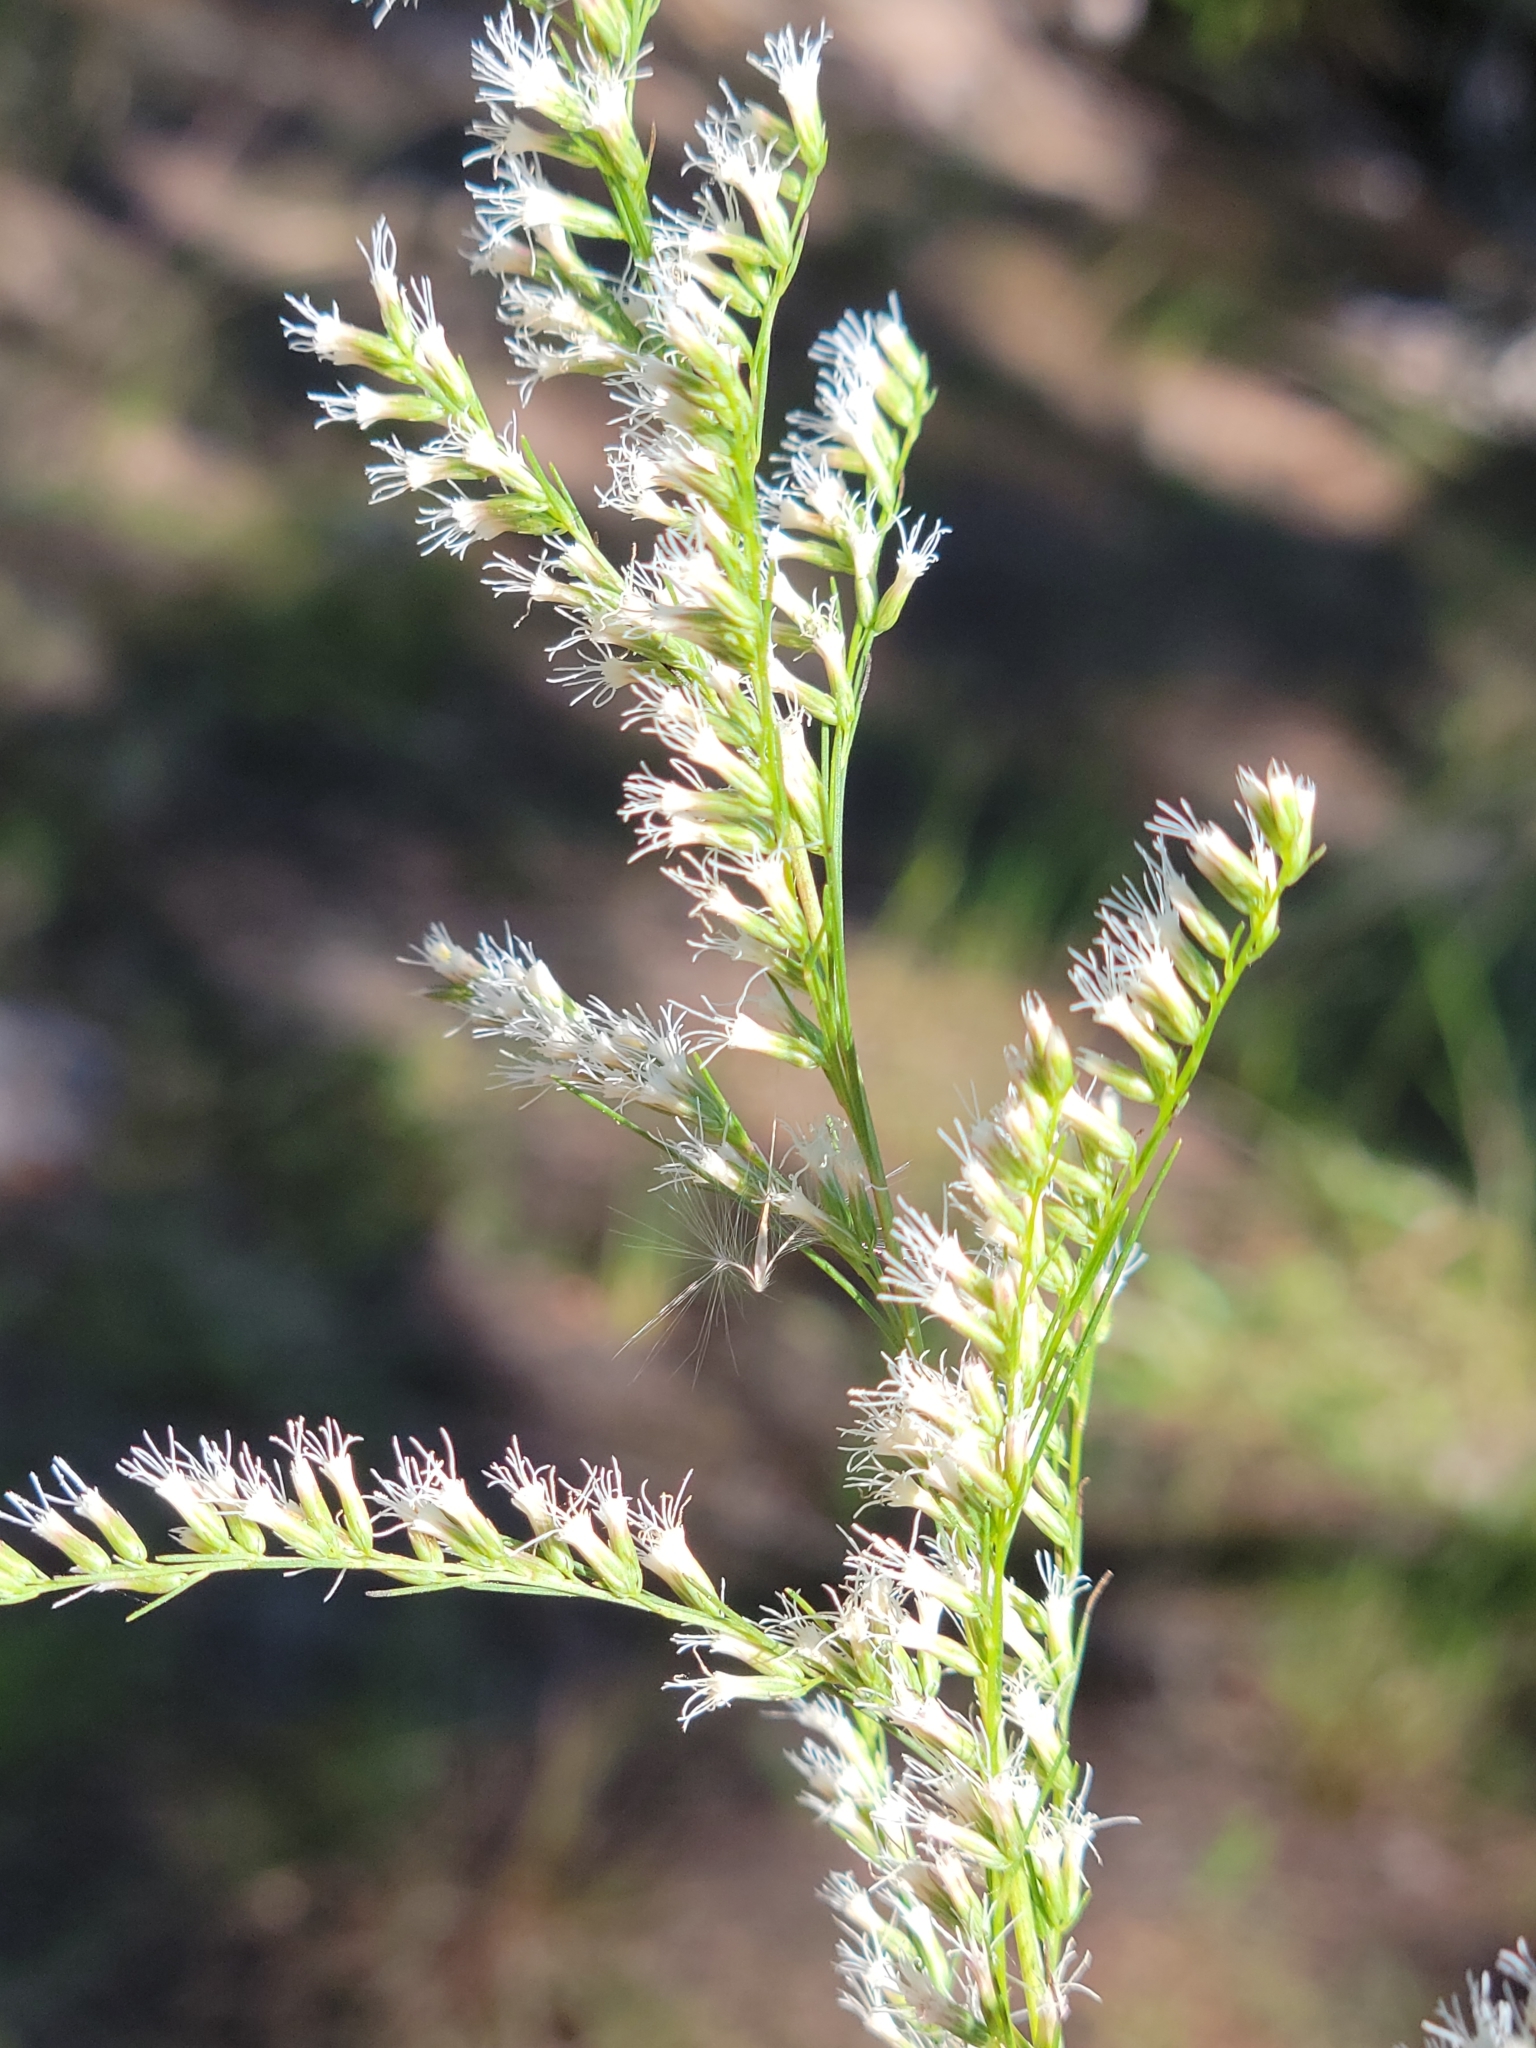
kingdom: Plantae
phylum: Tracheophyta
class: Magnoliopsida
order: Asterales
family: Asteraceae
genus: Eupatorium
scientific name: Eupatorium leptophyllum
